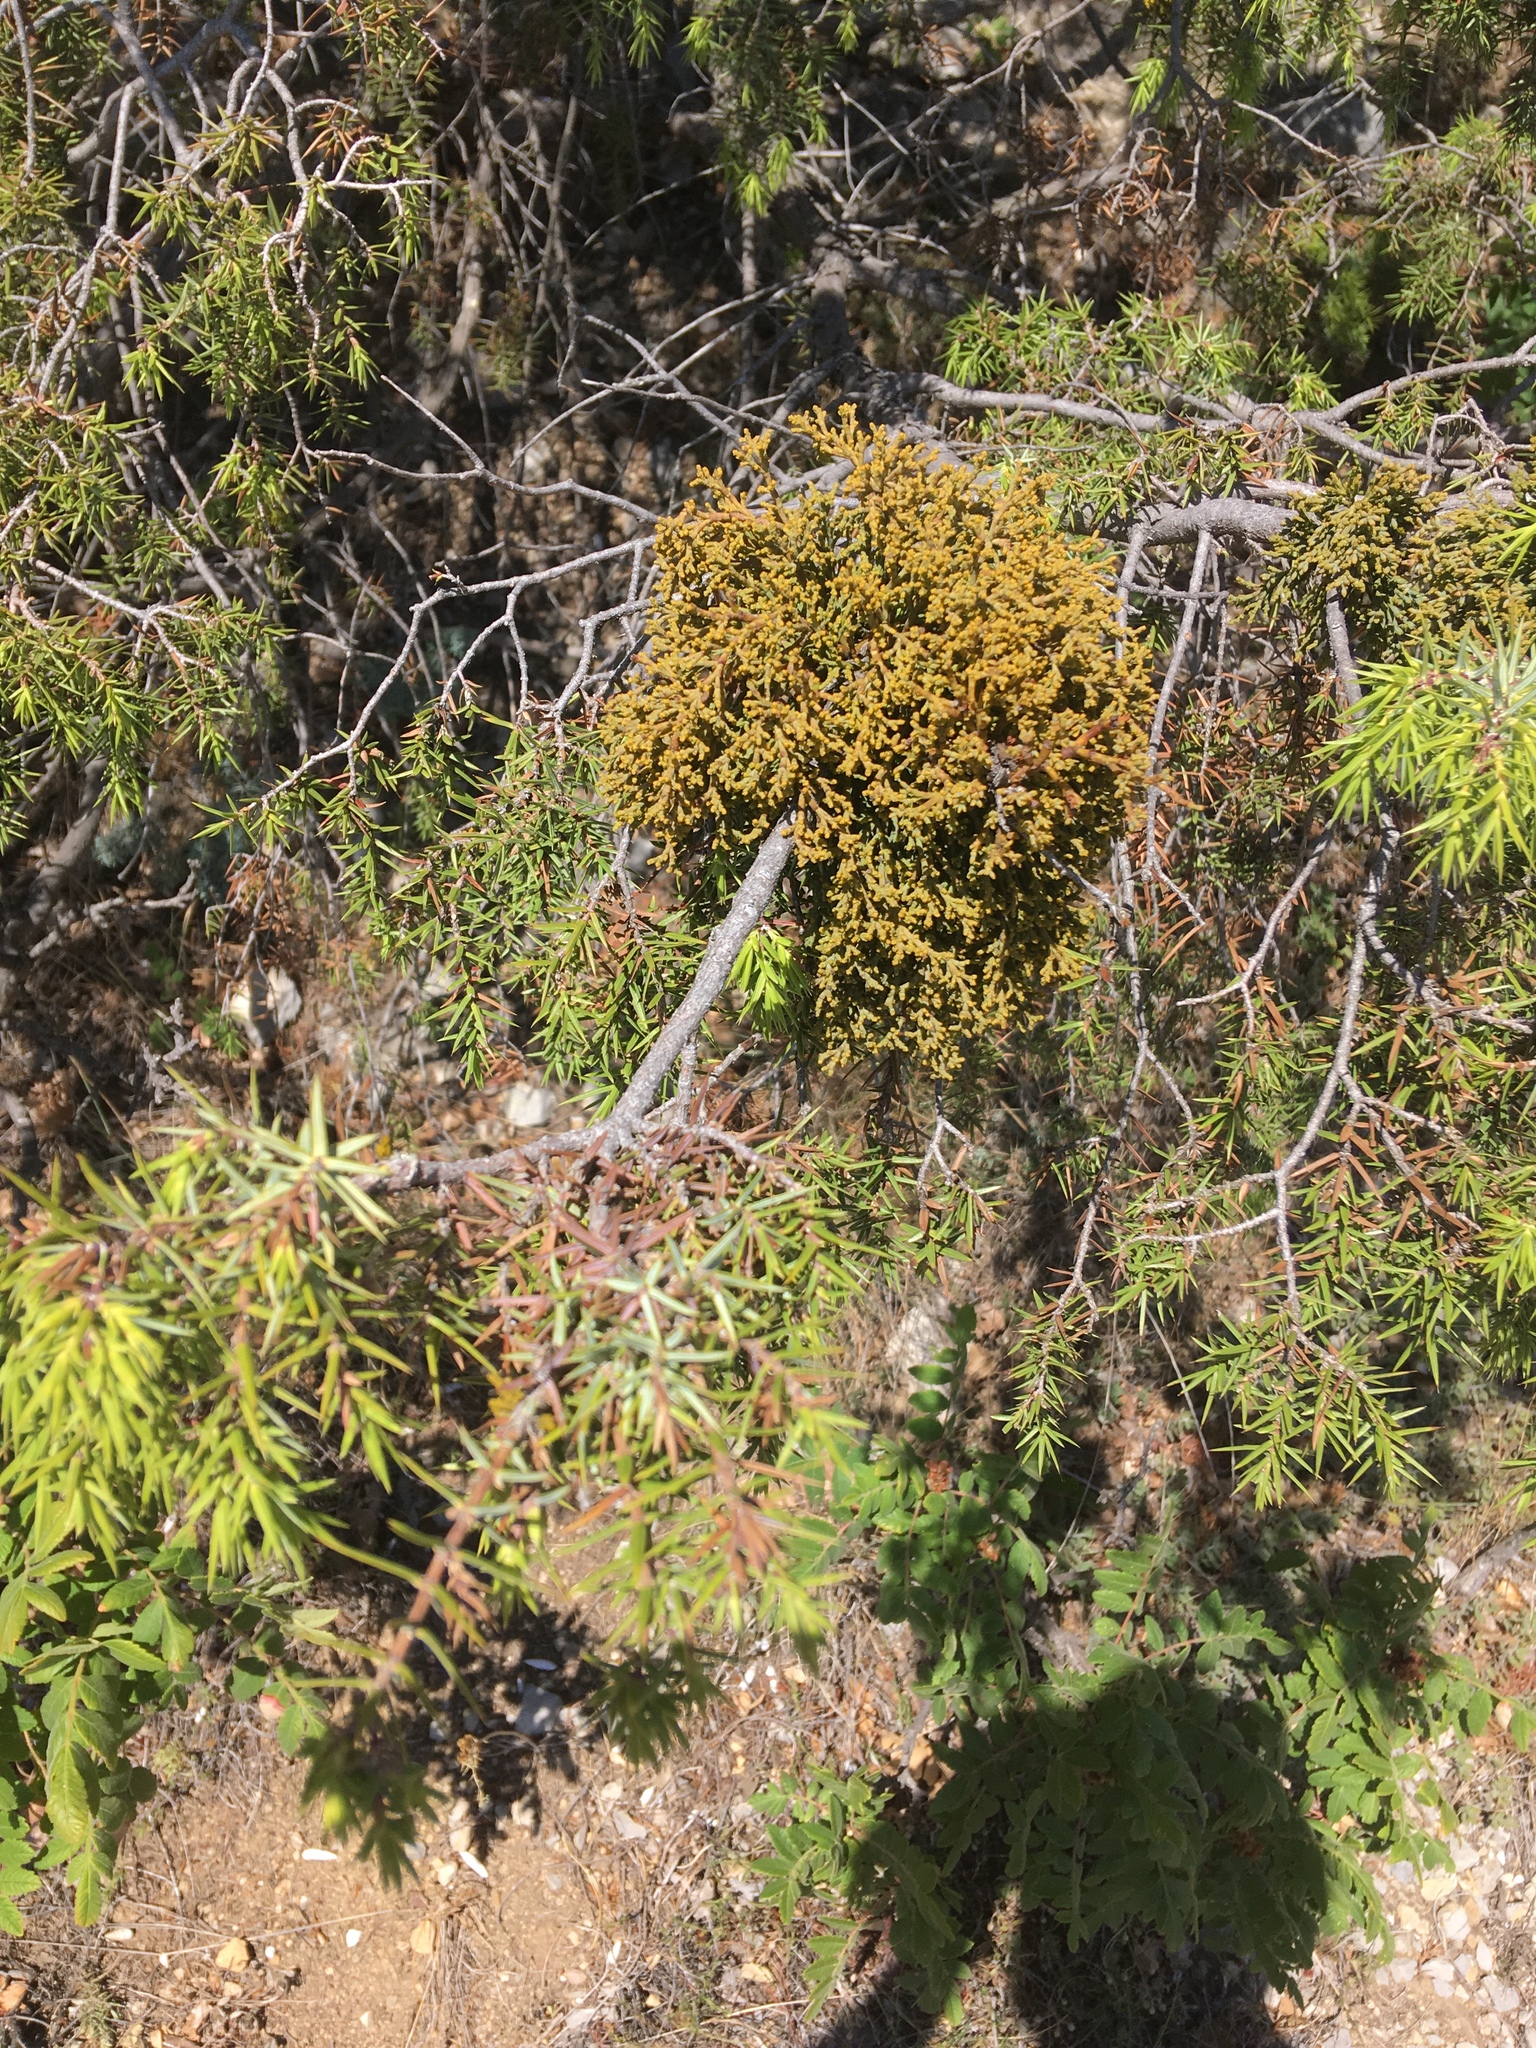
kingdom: Plantae
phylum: Tracheophyta
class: Magnoliopsida
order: Santalales
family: Viscaceae
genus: Arceuthobium
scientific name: Arceuthobium oxycedri
